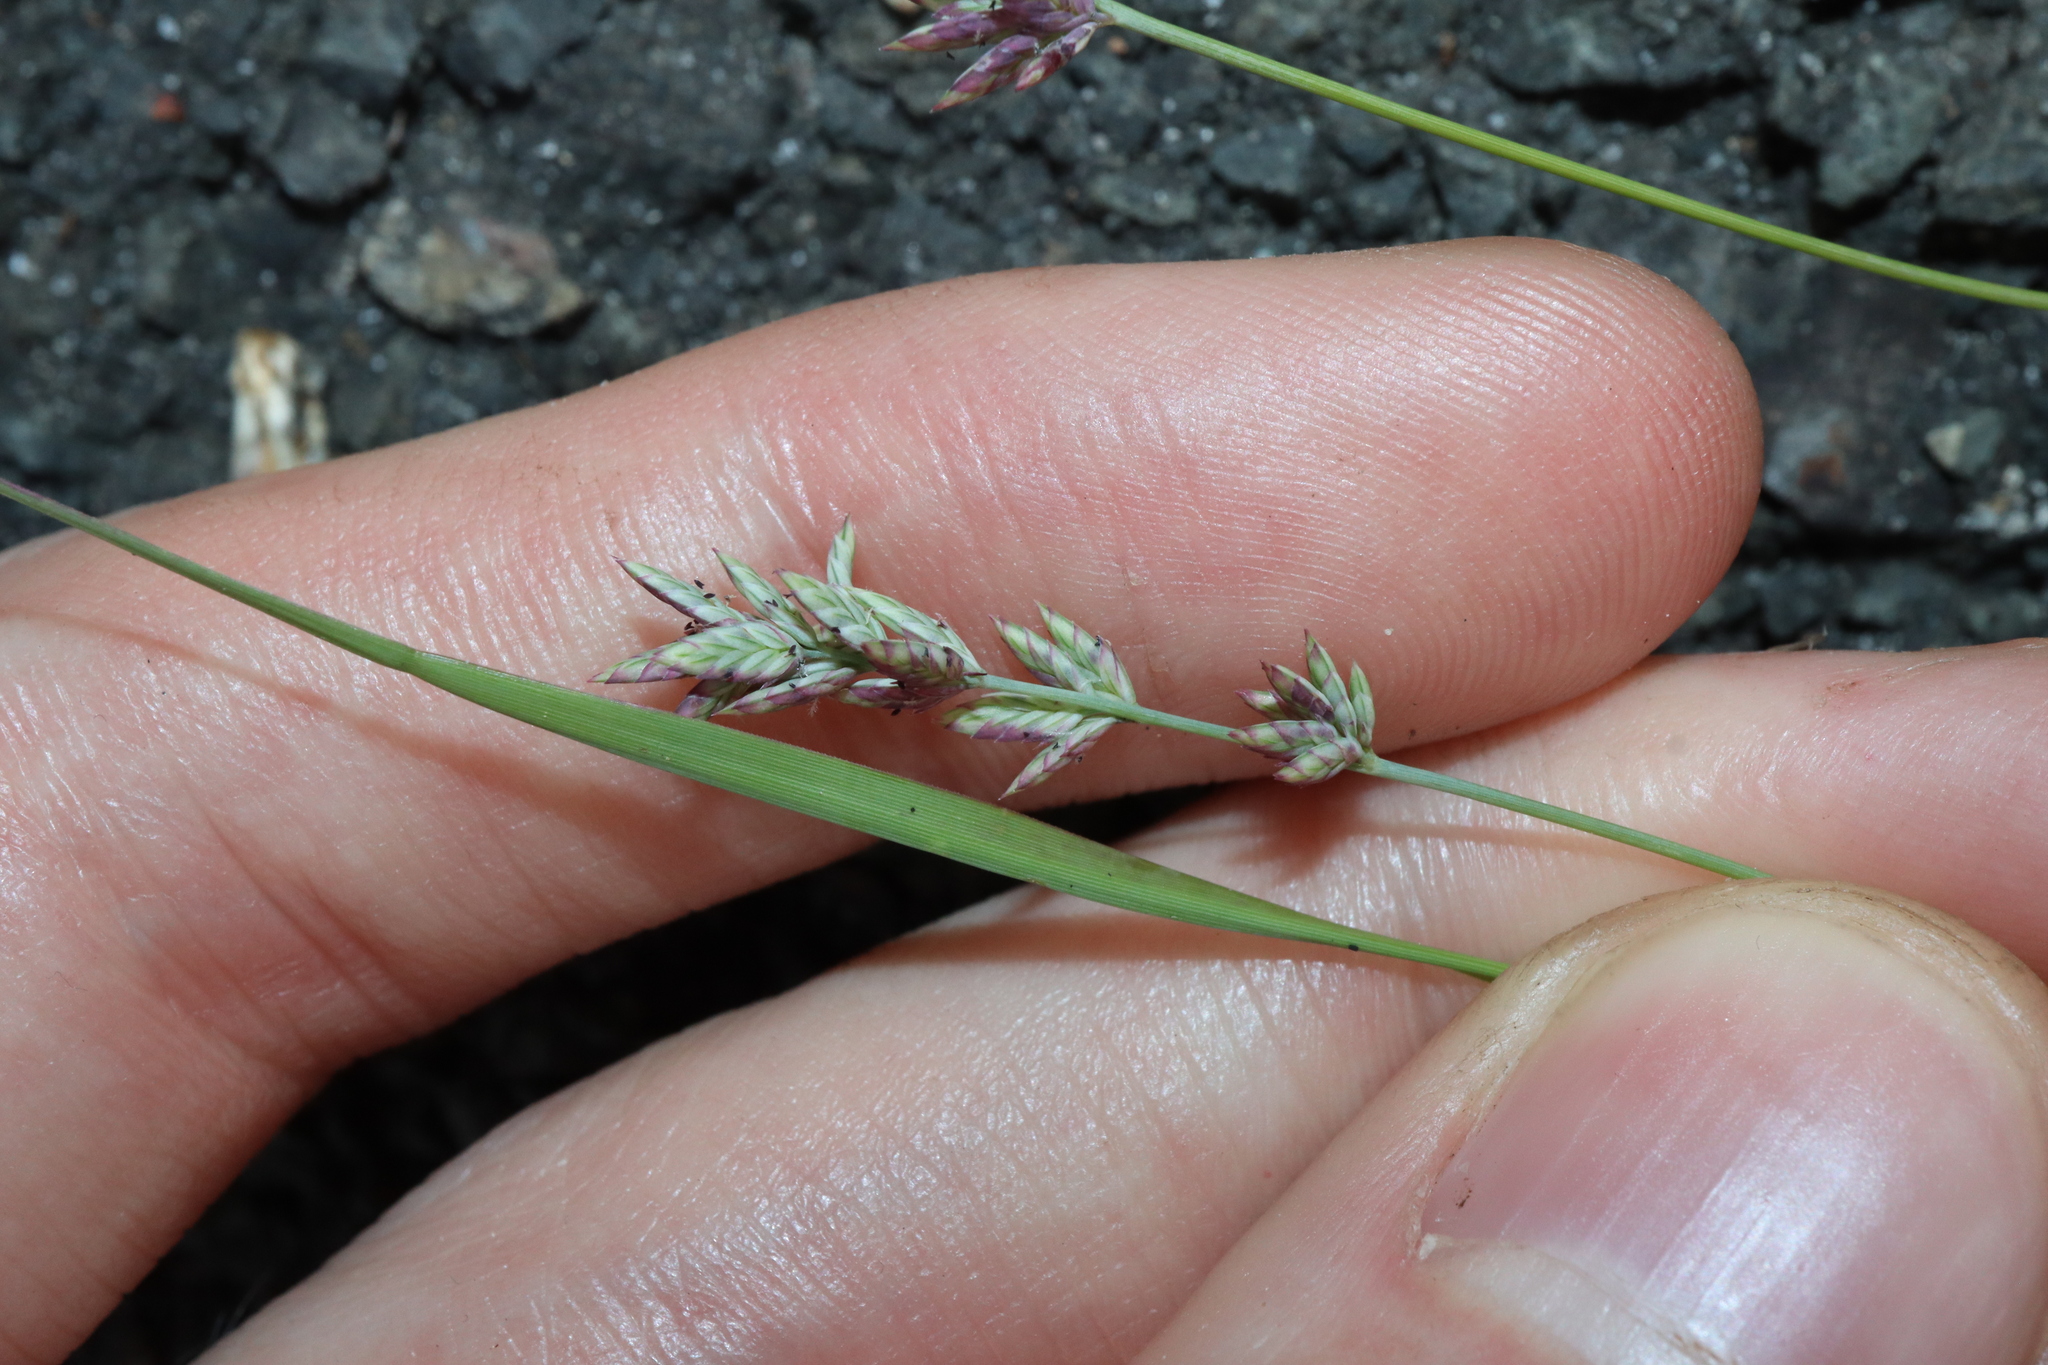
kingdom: Plantae
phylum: Tracheophyta
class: Liliopsida
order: Poales
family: Poaceae
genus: Eragrostis
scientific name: Eragrostis elongata
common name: Long lovegrass
